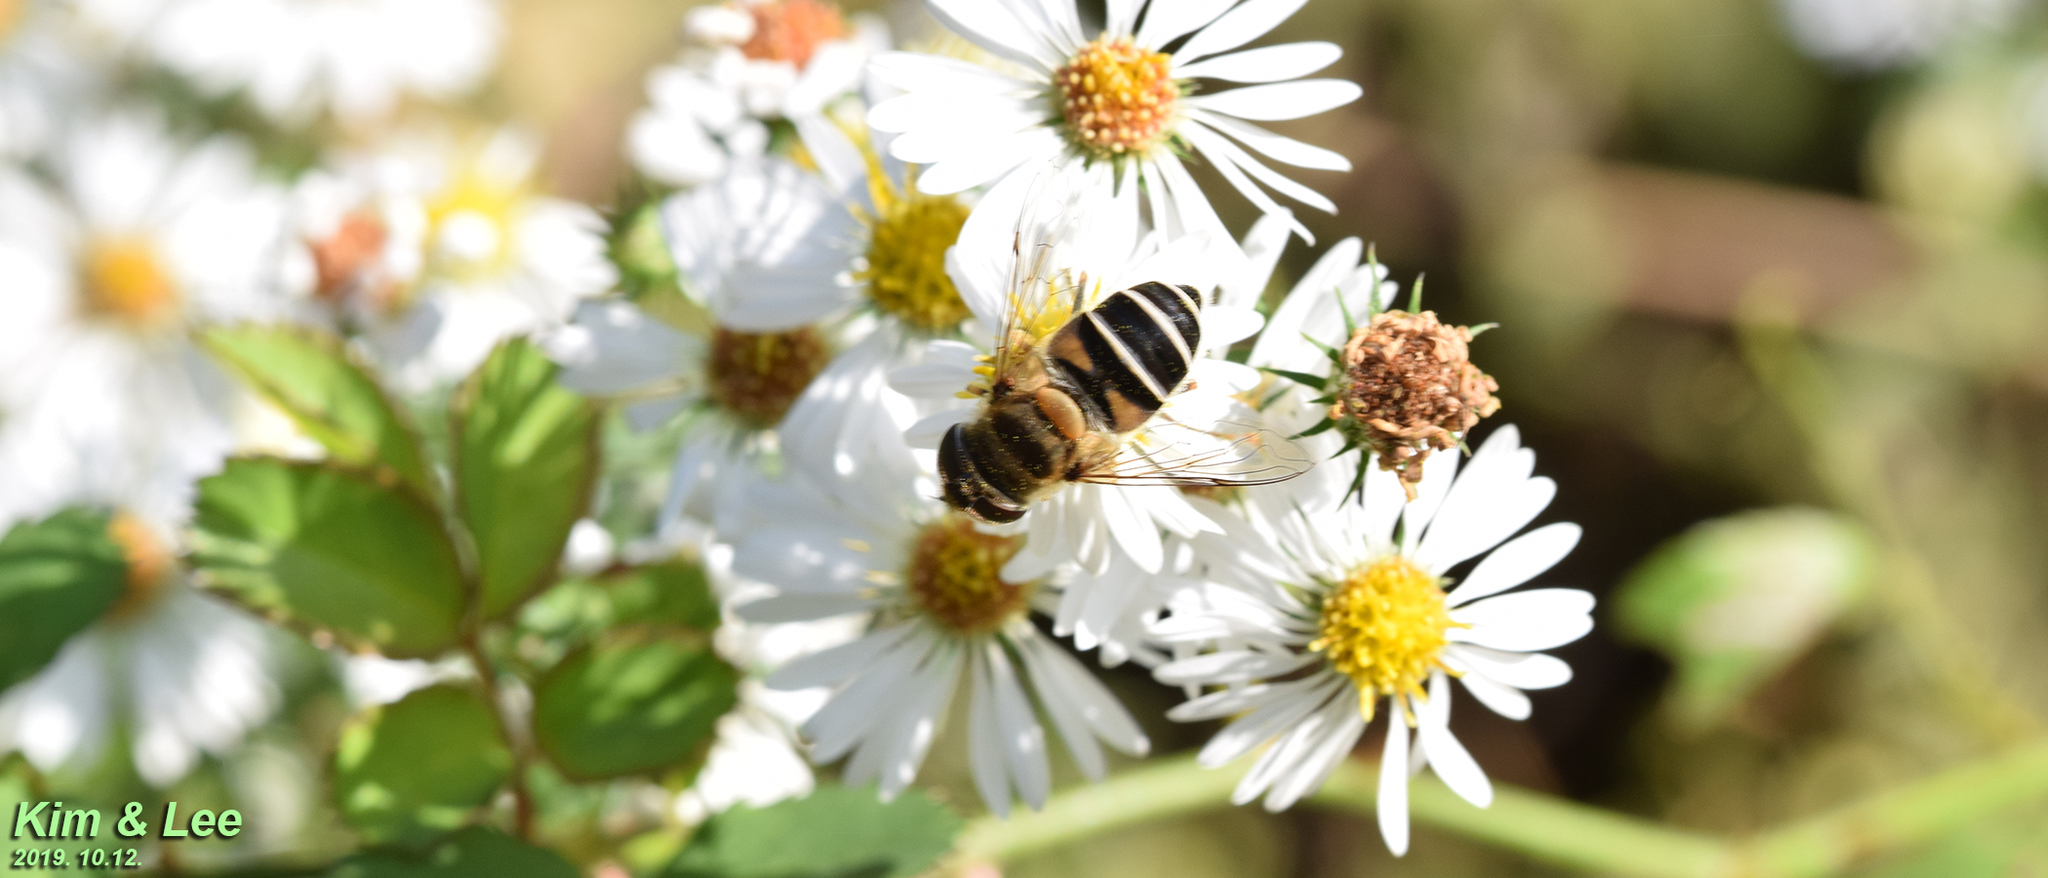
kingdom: Animalia
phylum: Arthropoda
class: Insecta
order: Diptera
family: Syrphidae
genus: Eristalis
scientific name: Eristalis kyokoae
